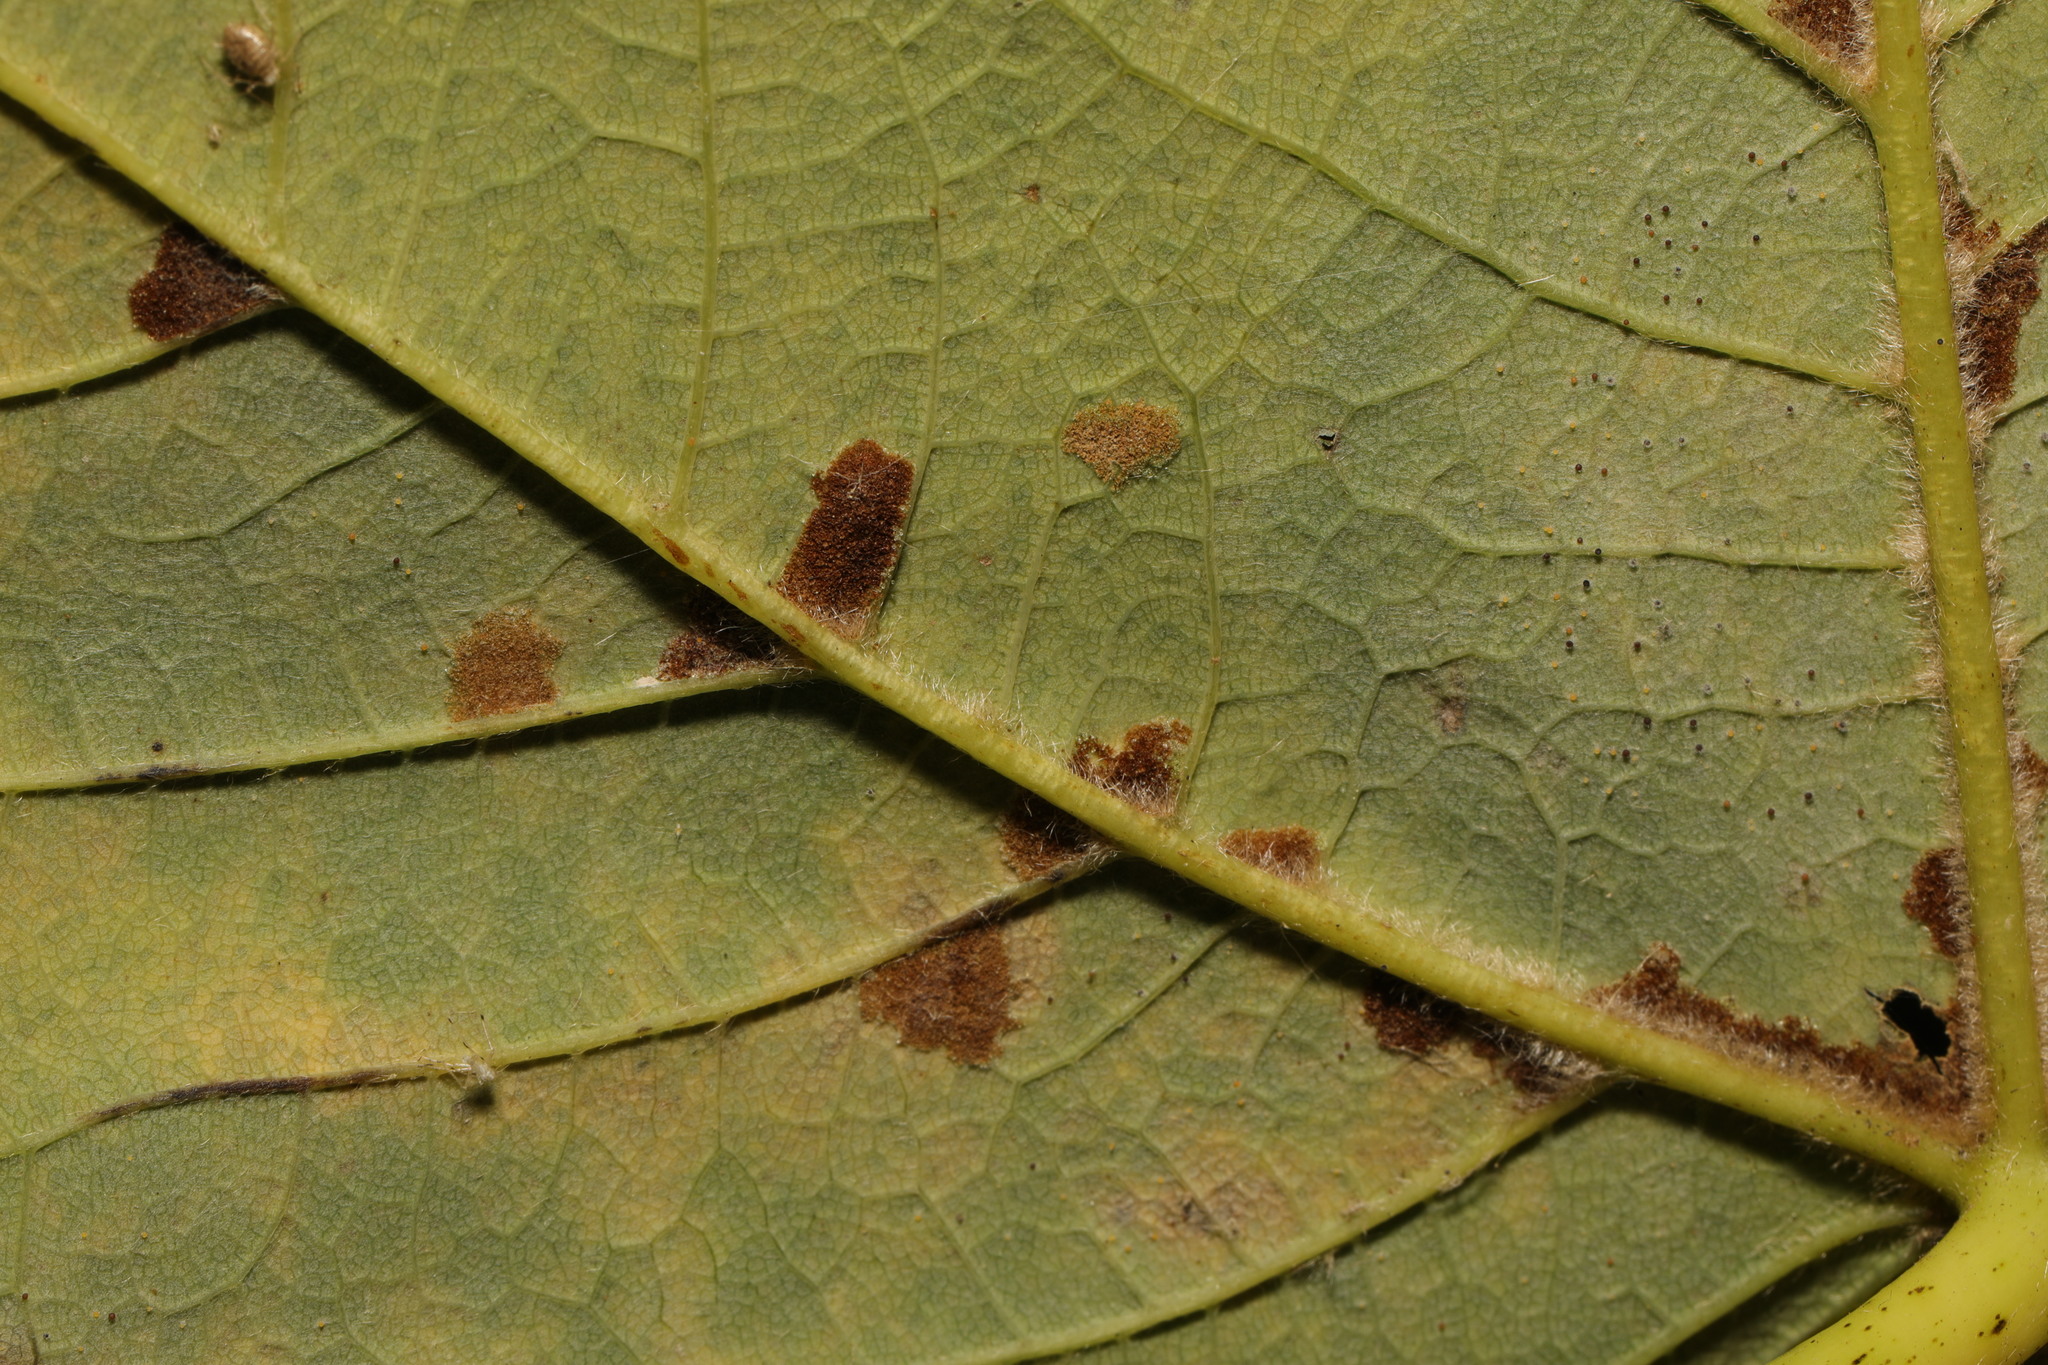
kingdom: Animalia
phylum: Arthropoda
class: Arachnida
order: Trombidiformes
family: Eriophyidae
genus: Aceria
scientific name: Aceria pseudoplatani
